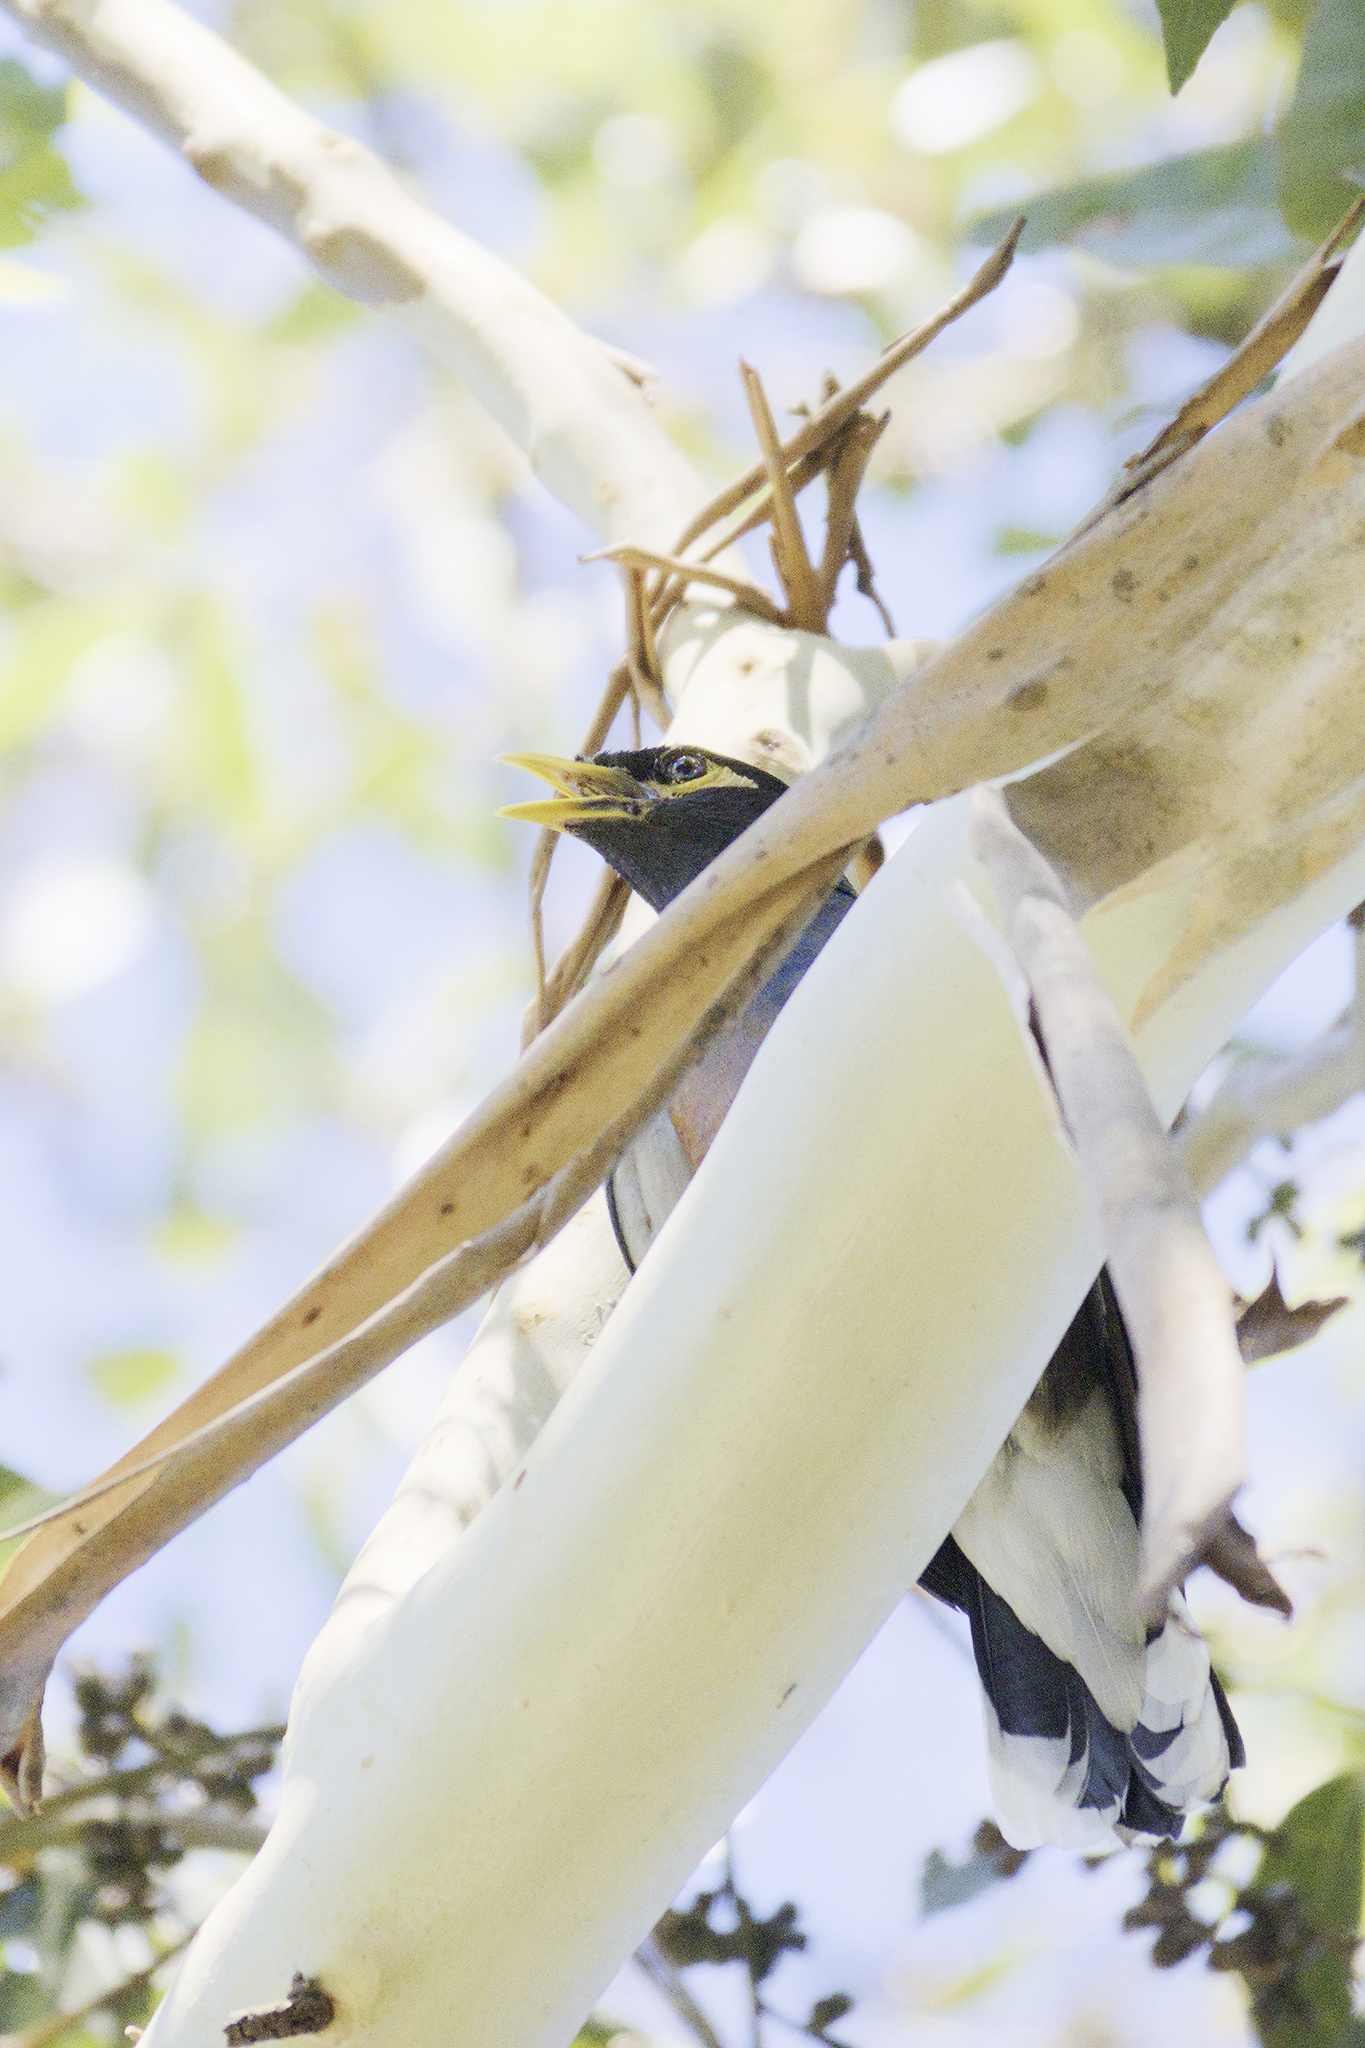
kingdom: Animalia
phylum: Chordata
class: Aves
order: Passeriformes
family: Sturnidae
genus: Acridotheres
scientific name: Acridotheres tristis
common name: Common myna
